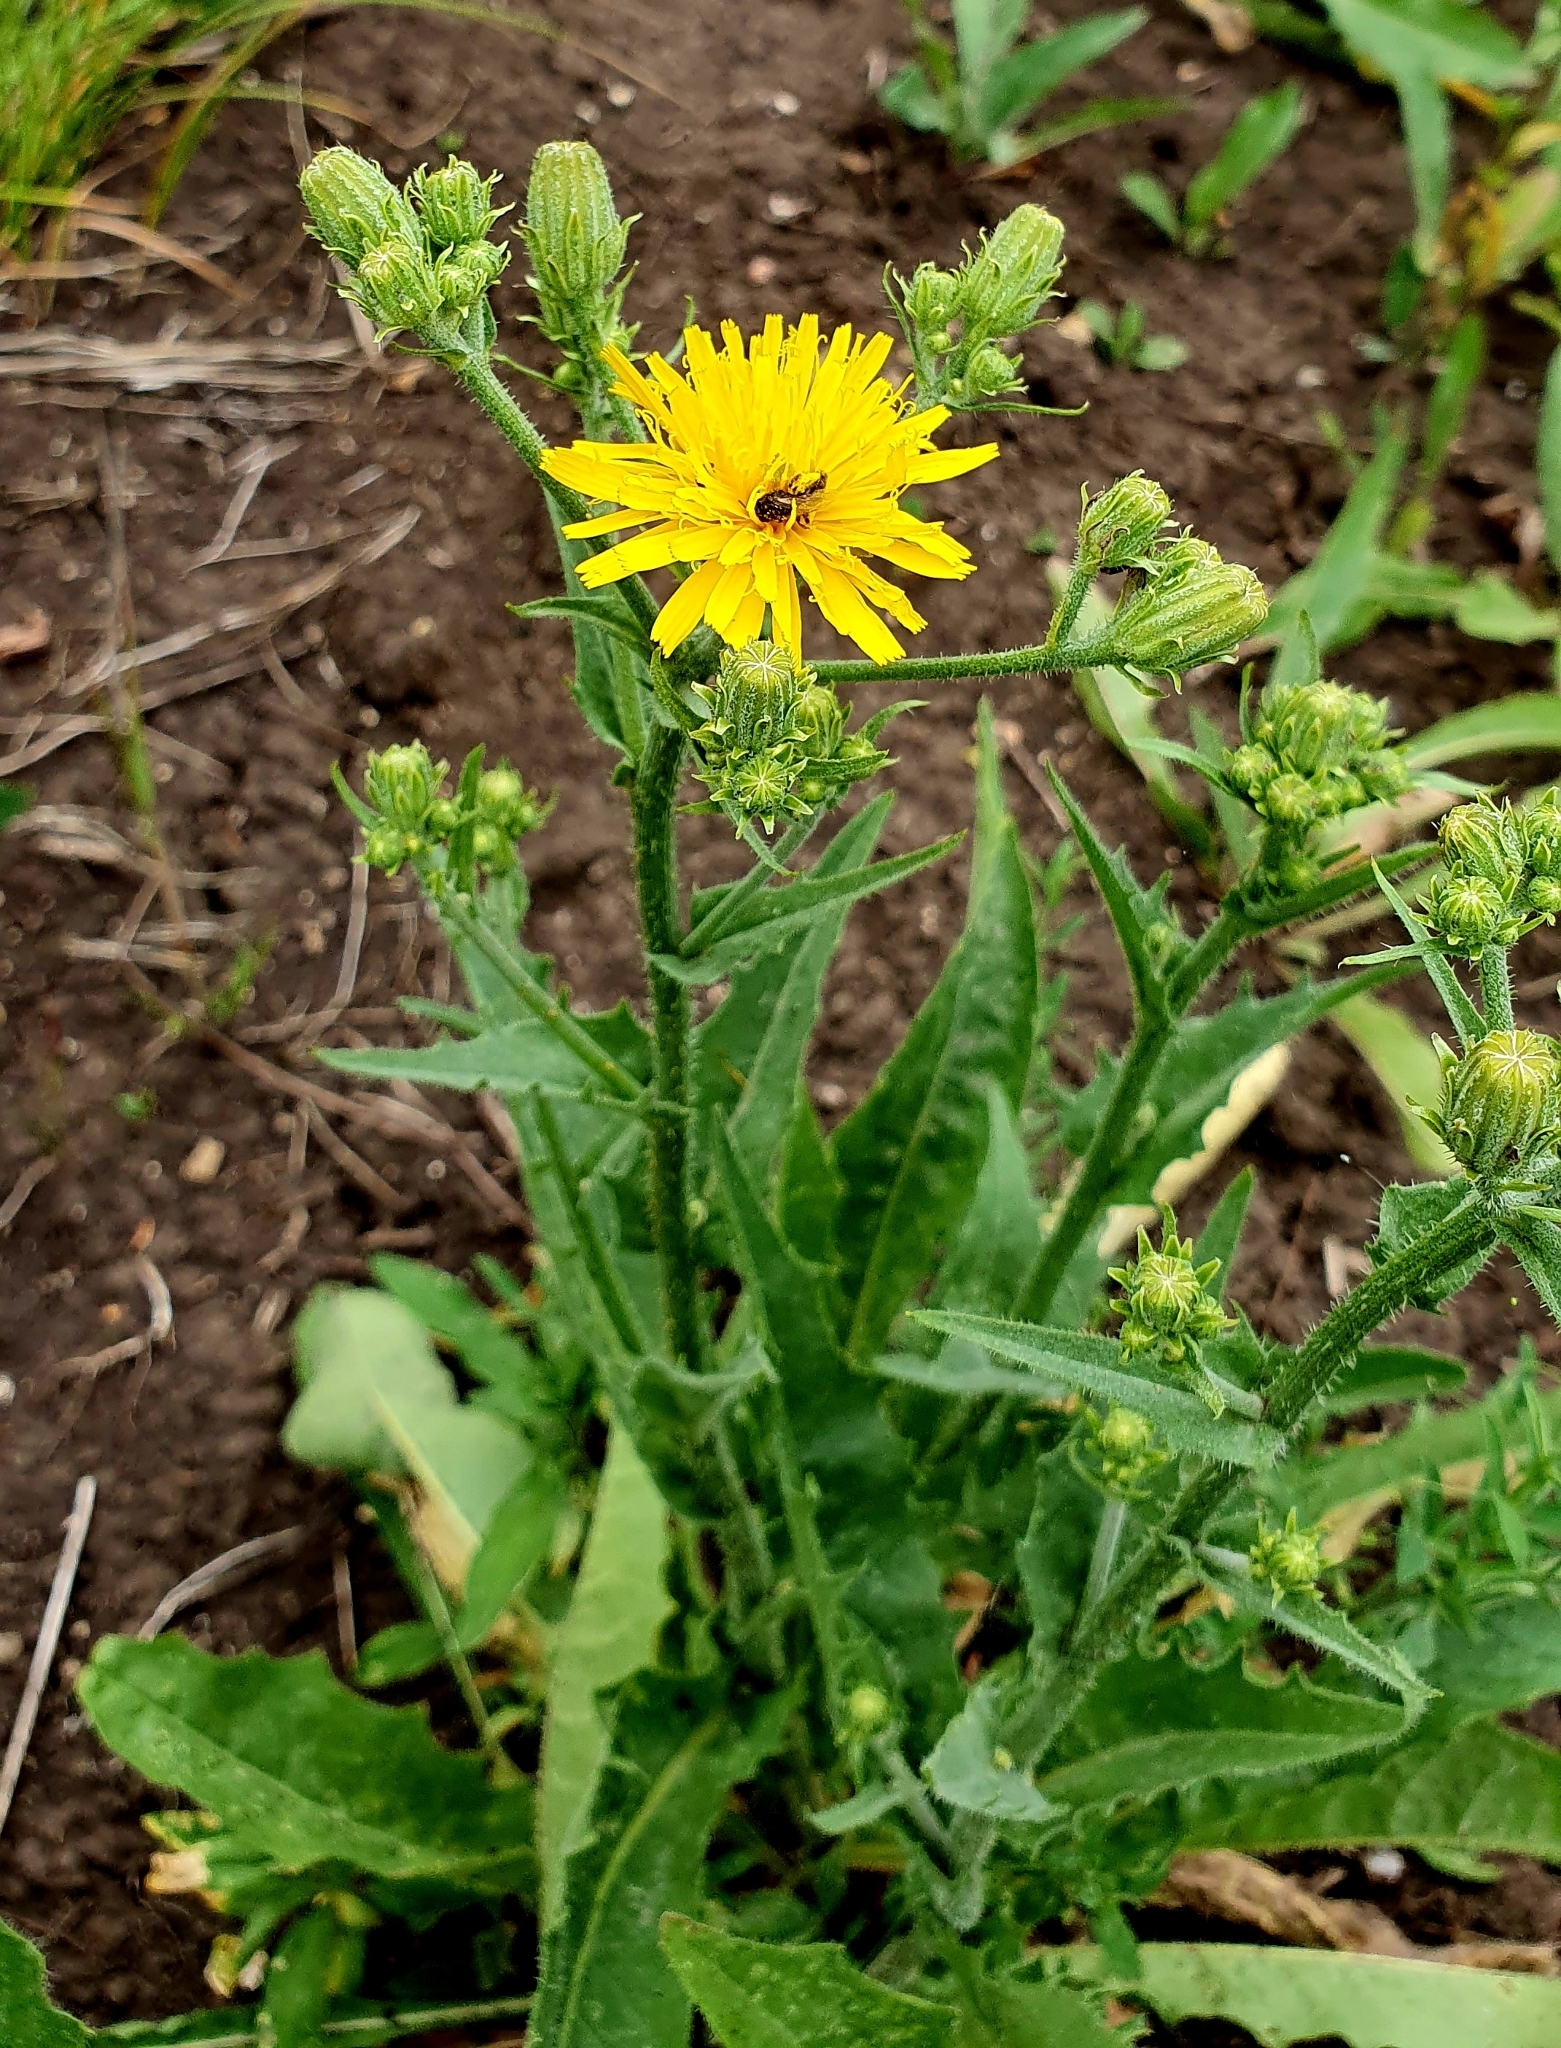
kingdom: Plantae
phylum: Tracheophyta
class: Magnoliopsida
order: Asterales
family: Asteraceae
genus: Picris
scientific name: Picris hieracioides
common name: Hawkweed oxtongue
